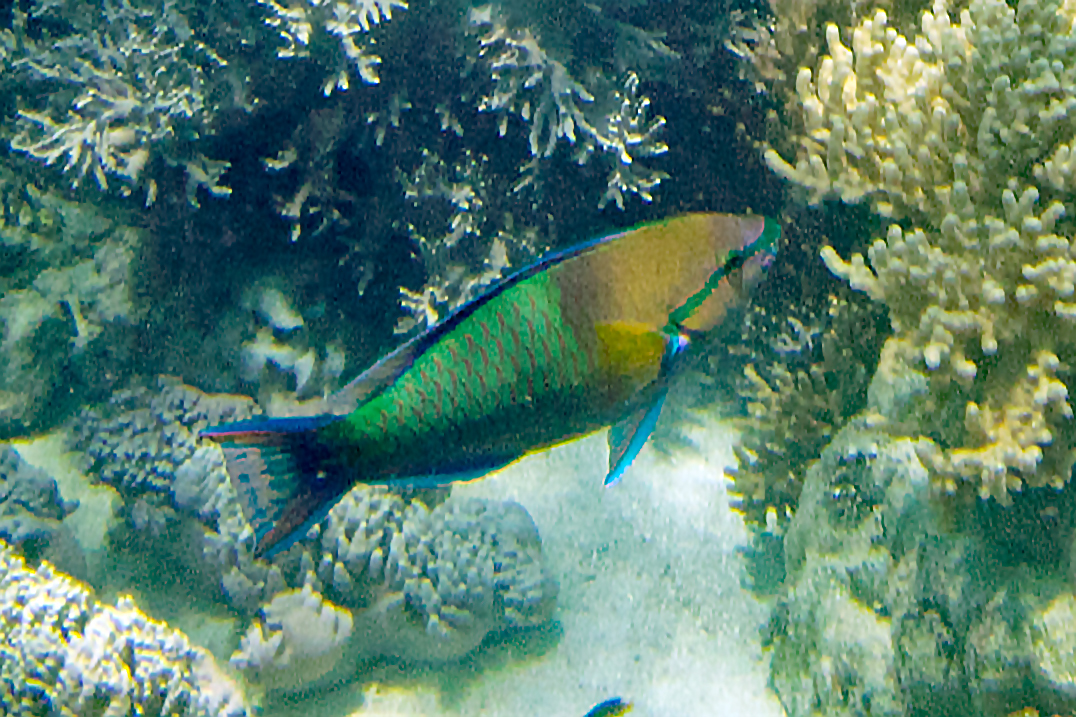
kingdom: Animalia
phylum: Chordata
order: Perciformes
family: Scaridae
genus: Scarus
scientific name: Scarus flavipectoralis
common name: Yellowfin parrotfish
